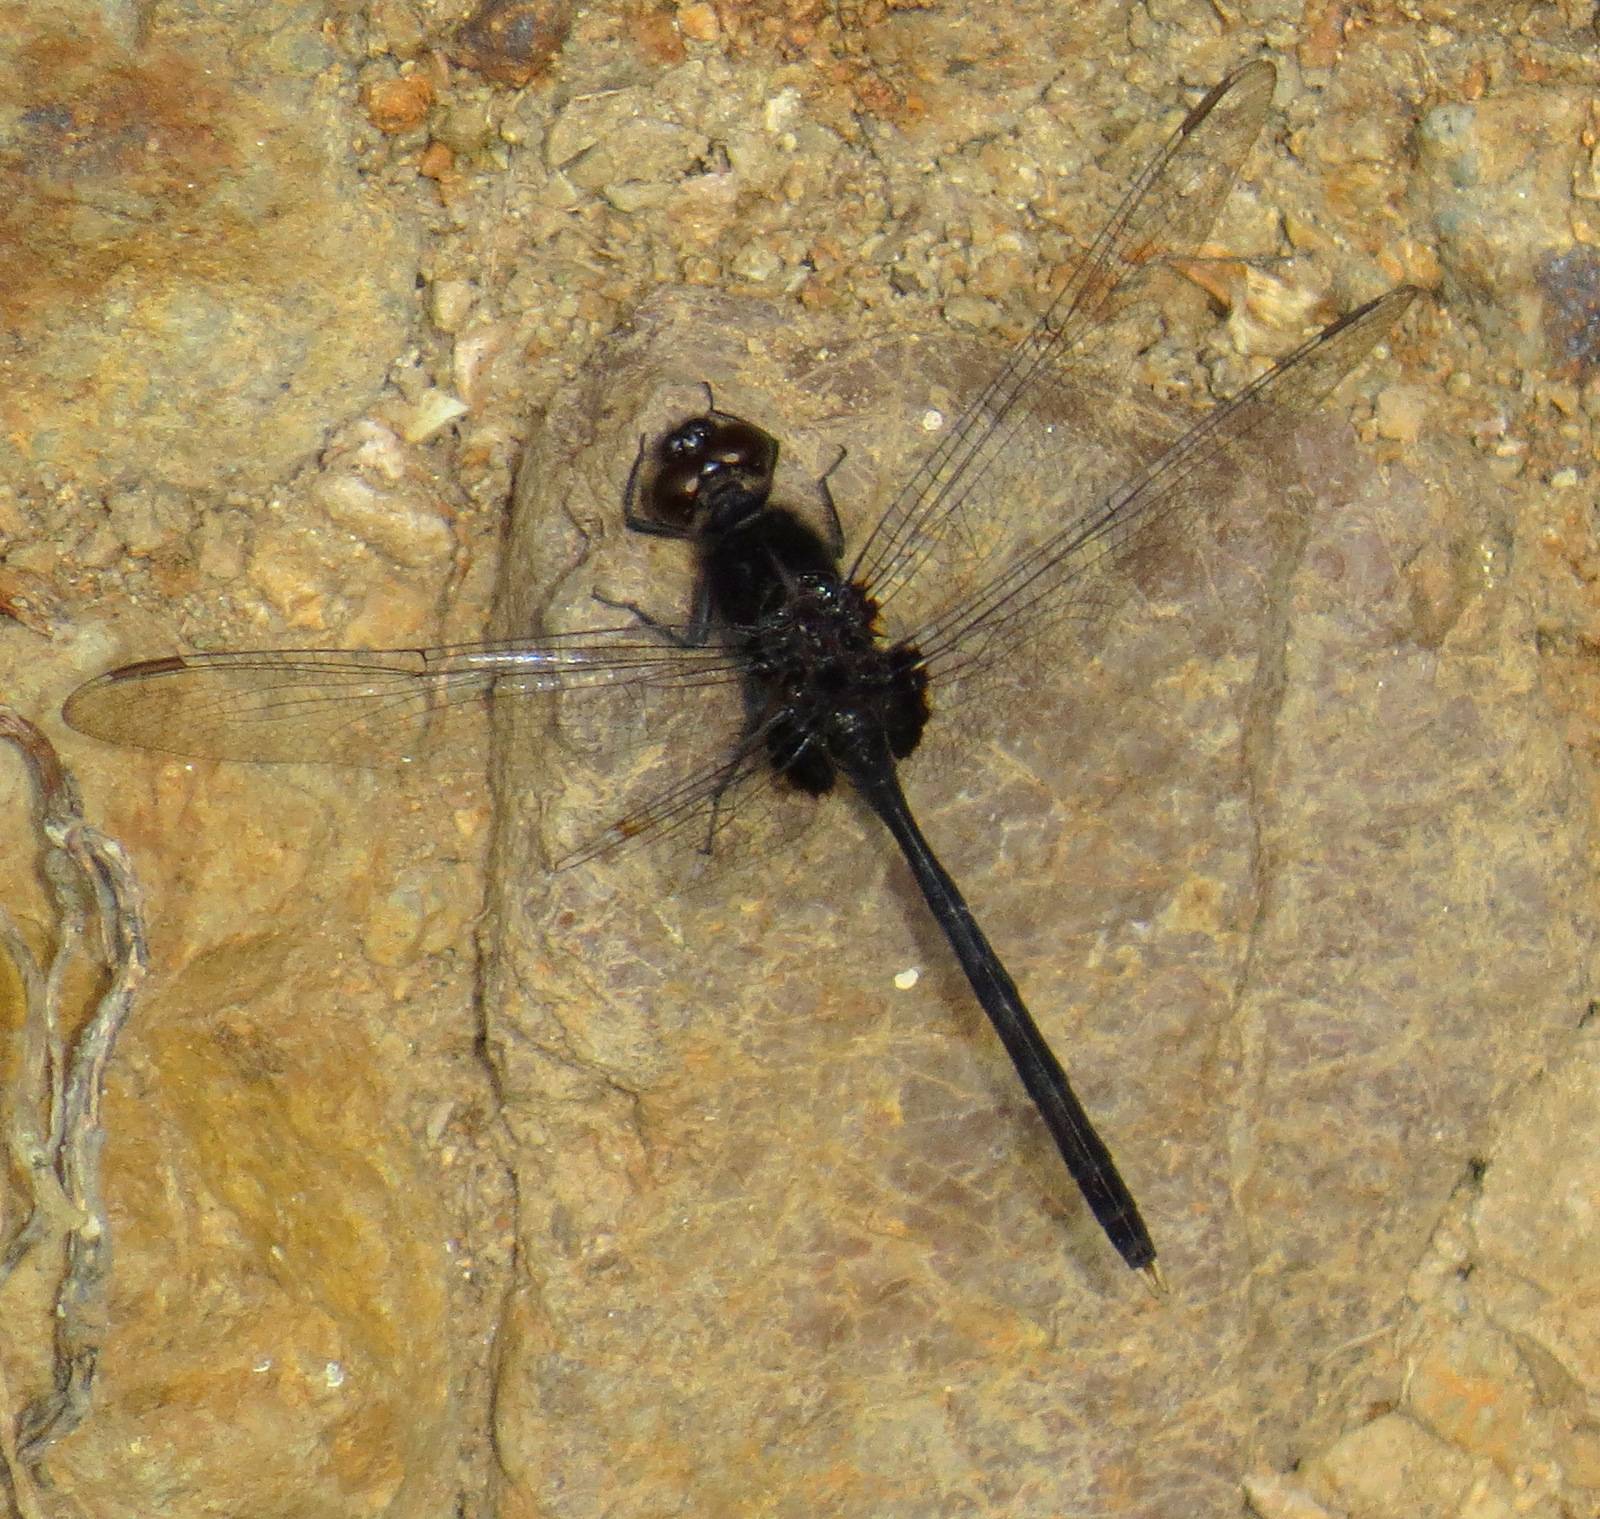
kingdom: Animalia
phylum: Arthropoda
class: Insecta
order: Odonata
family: Libellulidae
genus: Erythemis
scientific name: Erythemis plebeja
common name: Pin-tailed pondhawk
